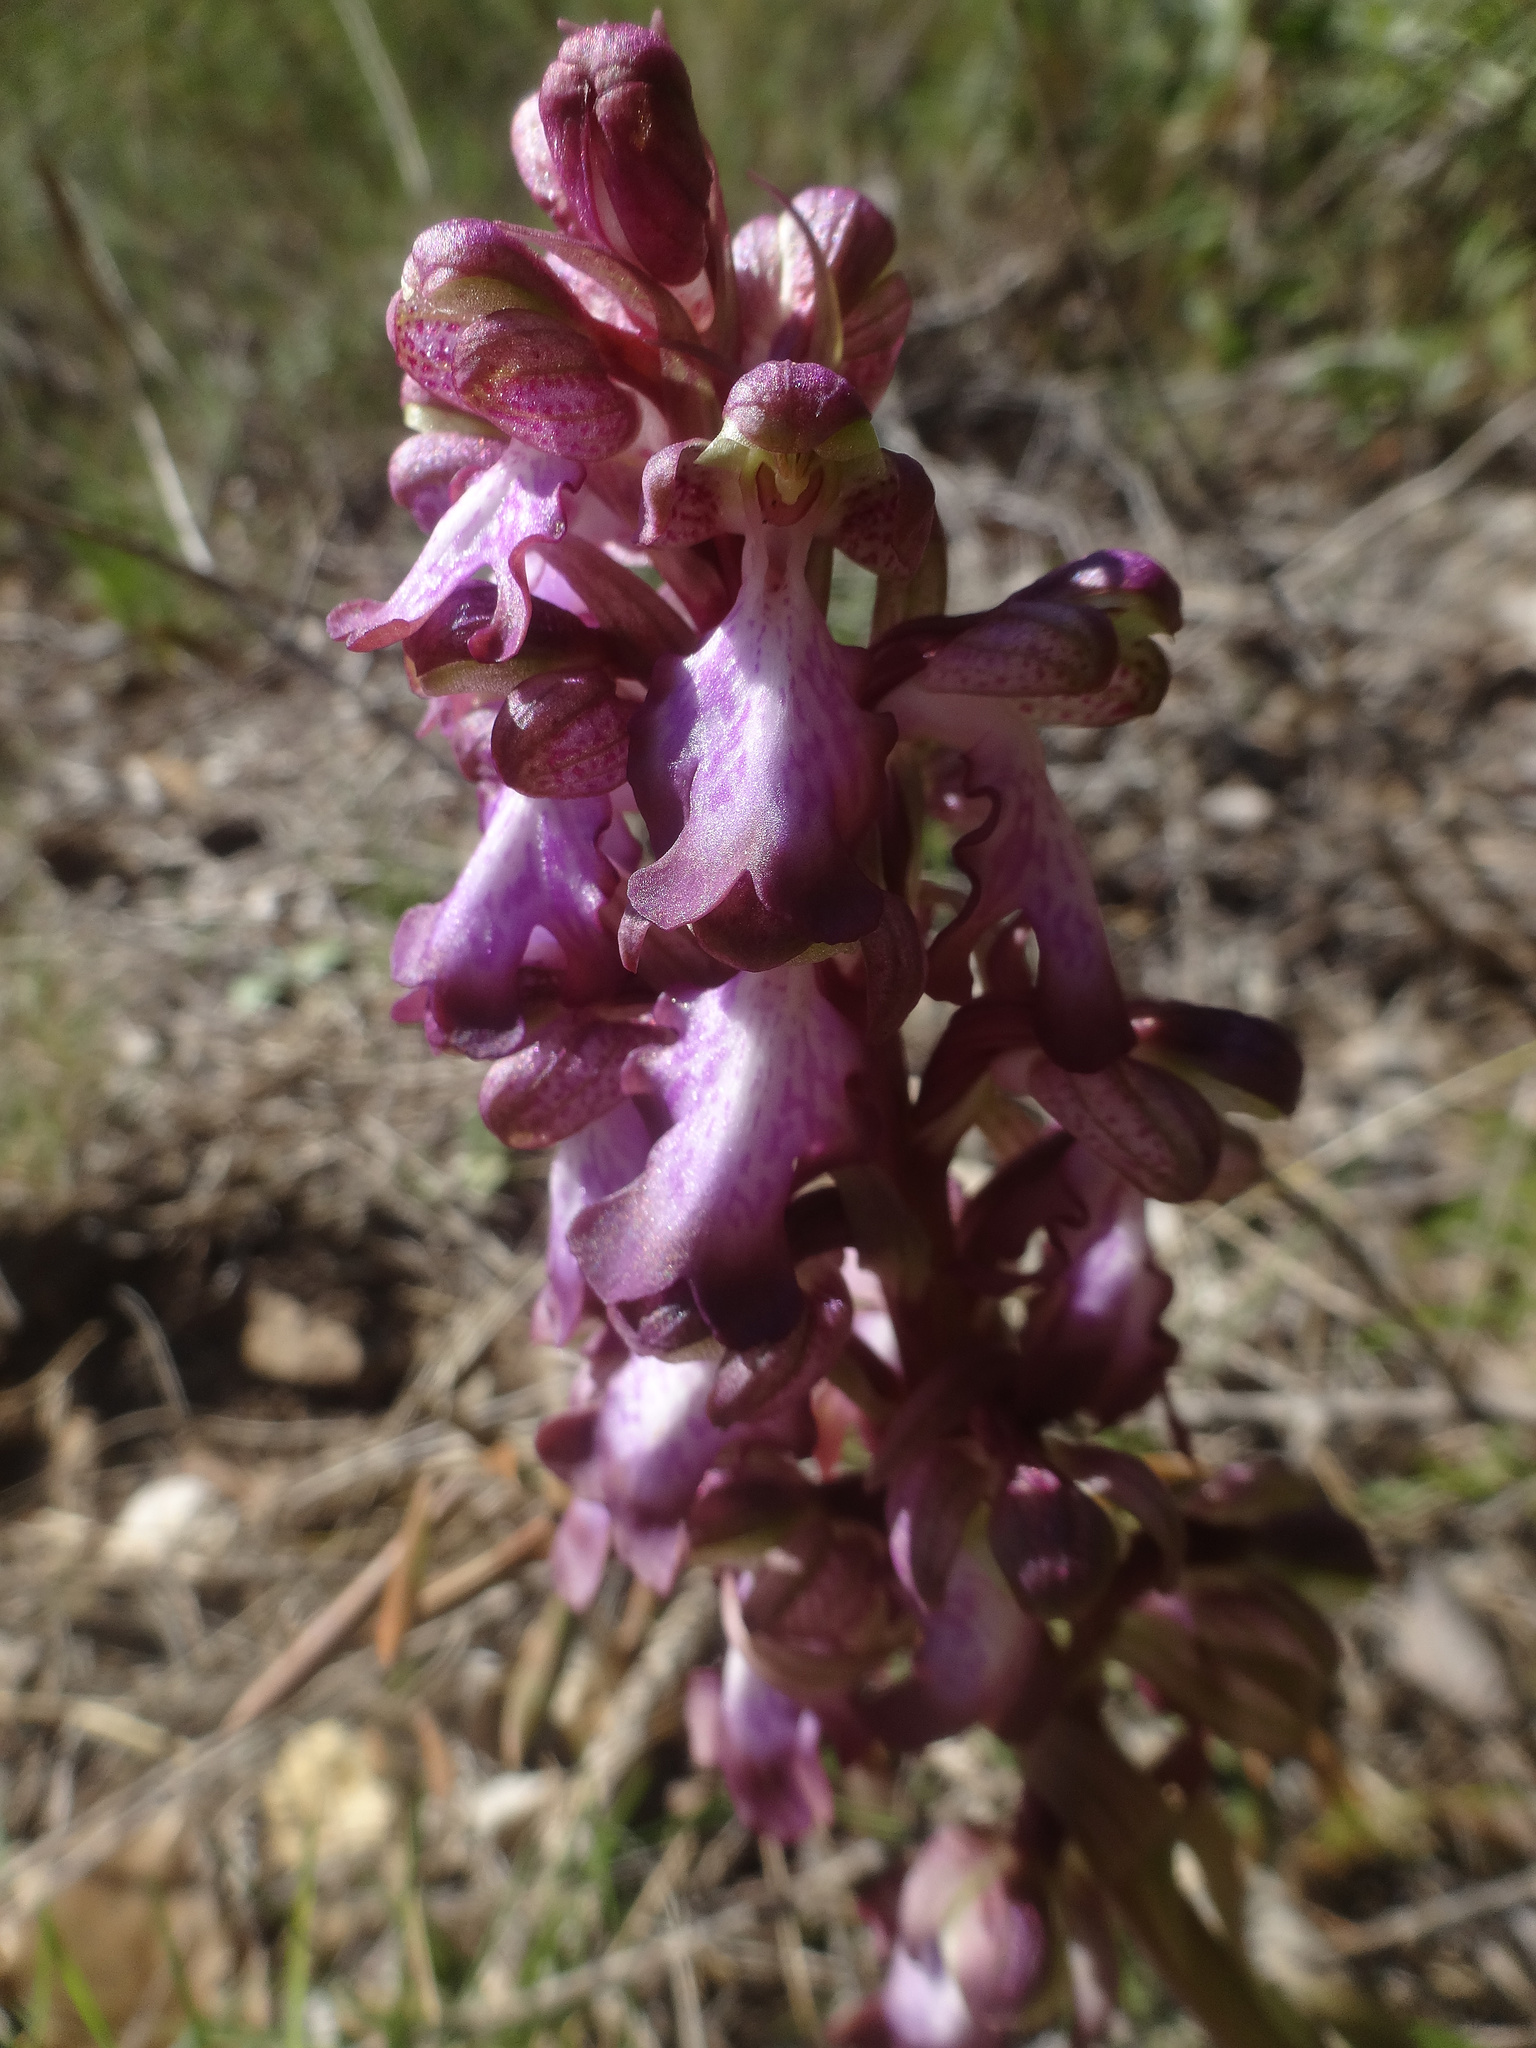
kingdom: Plantae
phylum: Tracheophyta
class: Liliopsida
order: Asparagales
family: Orchidaceae
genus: Himantoglossum
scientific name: Himantoglossum robertianum
